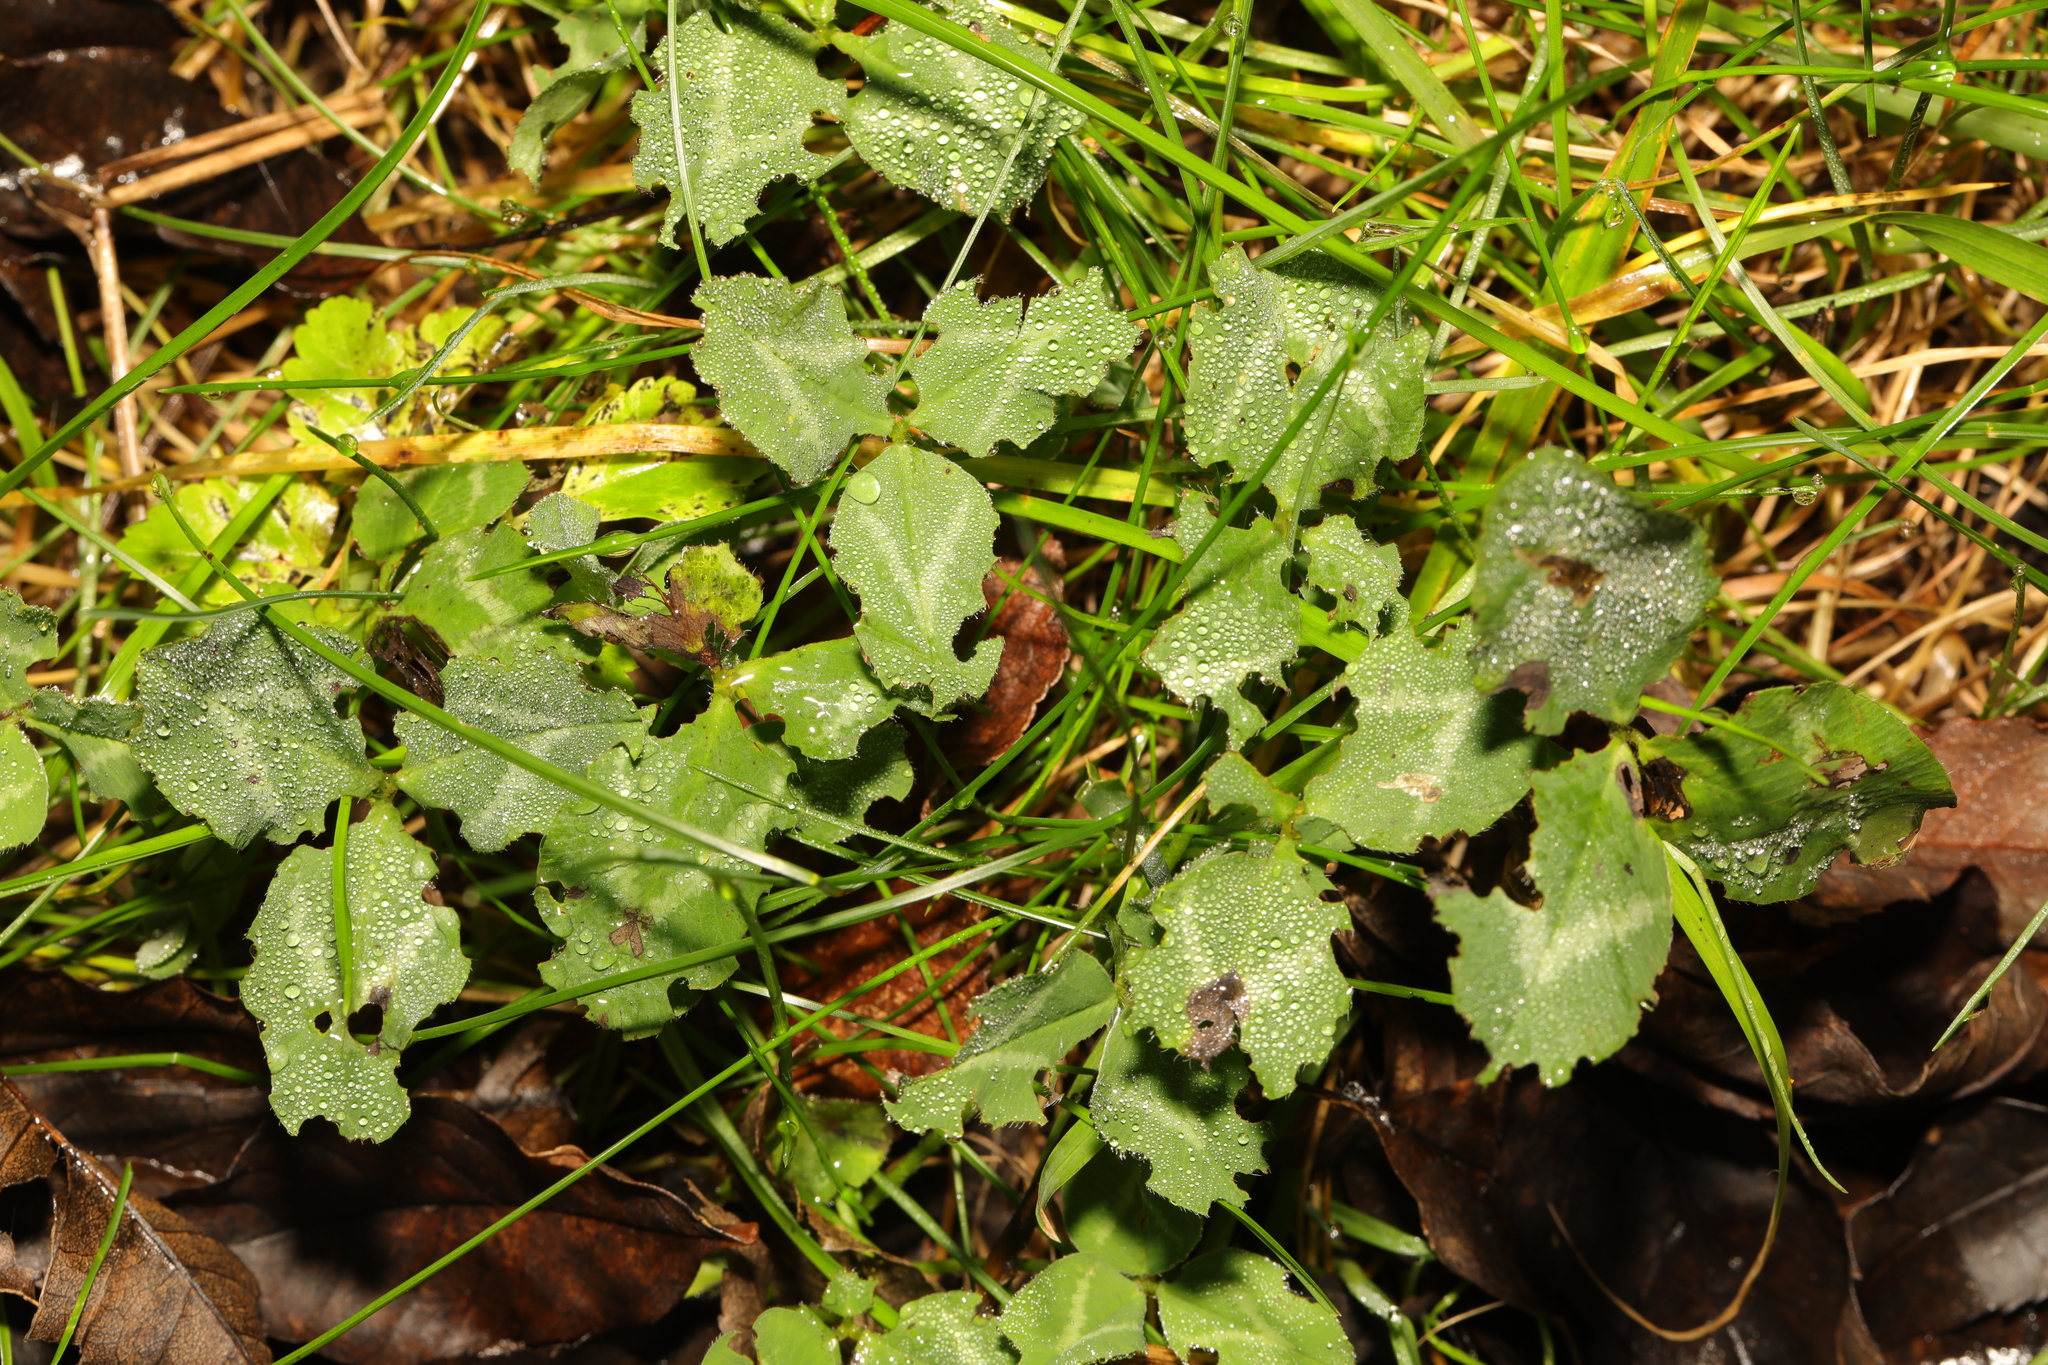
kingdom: Plantae
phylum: Tracheophyta
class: Magnoliopsida
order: Fabales
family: Fabaceae
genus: Trifolium
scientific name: Trifolium pratense
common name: Red clover
